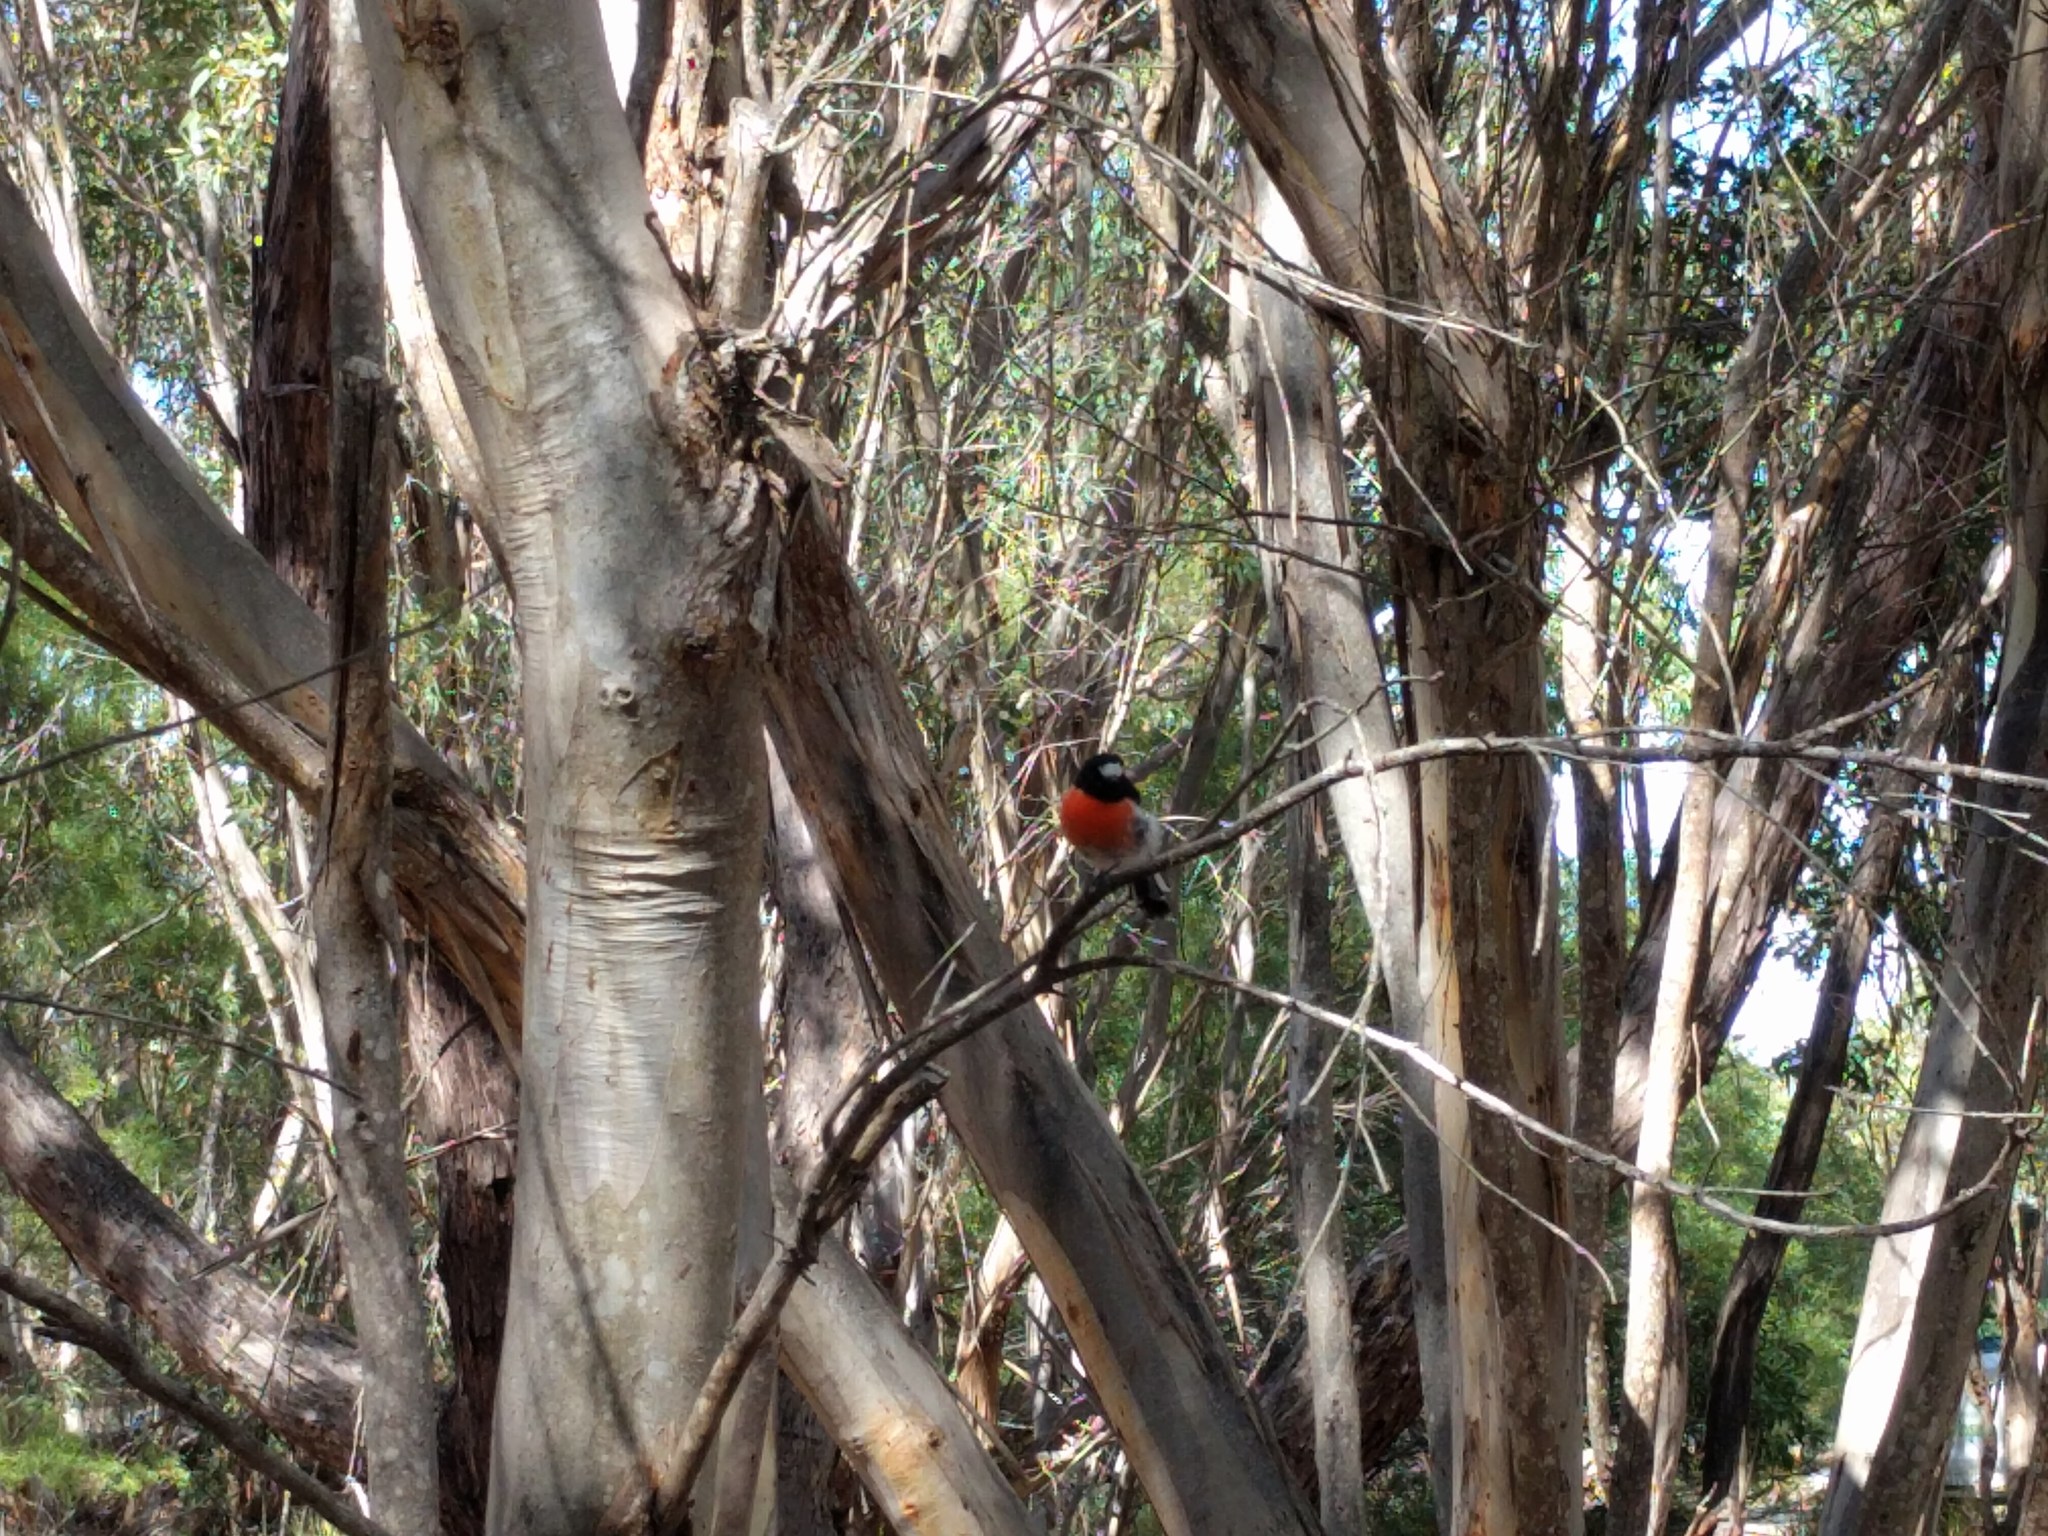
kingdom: Animalia
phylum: Chordata
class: Aves
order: Passeriformes
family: Petroicidae
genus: Petroica
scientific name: Petroica boodang
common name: Scarlet robin
